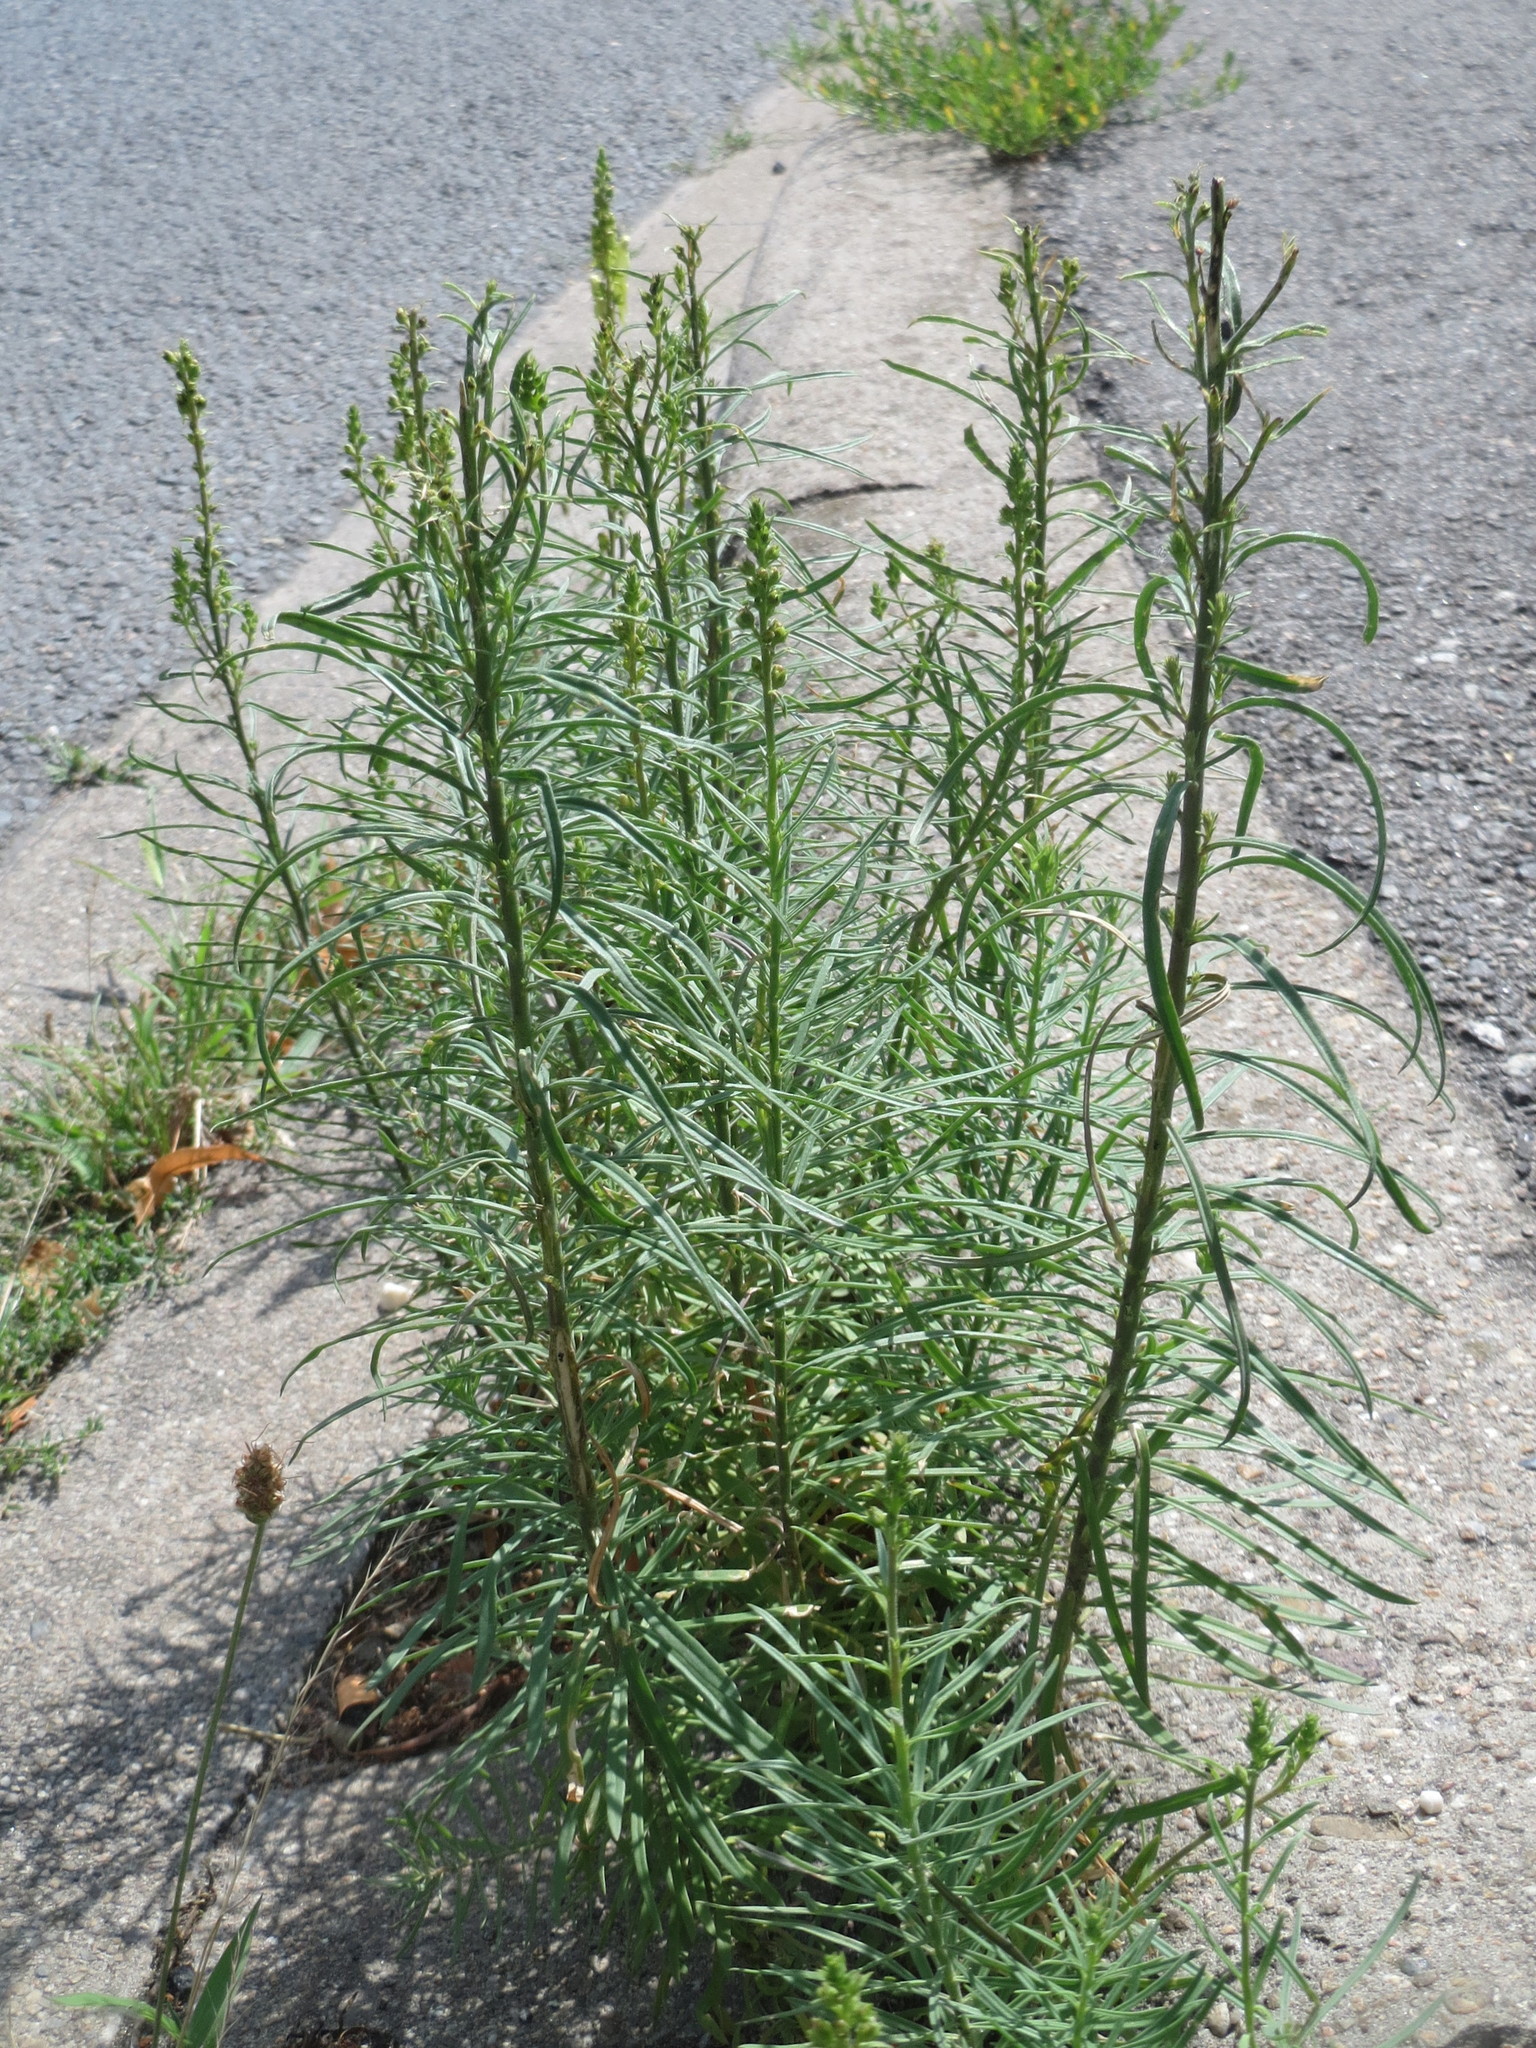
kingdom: Plantae
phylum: Tracheophyta
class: Magnoliopsida
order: Lamiales
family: Plantaginaceae
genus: Linaria
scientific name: Linaria vulgaris
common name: Butter and eggs
